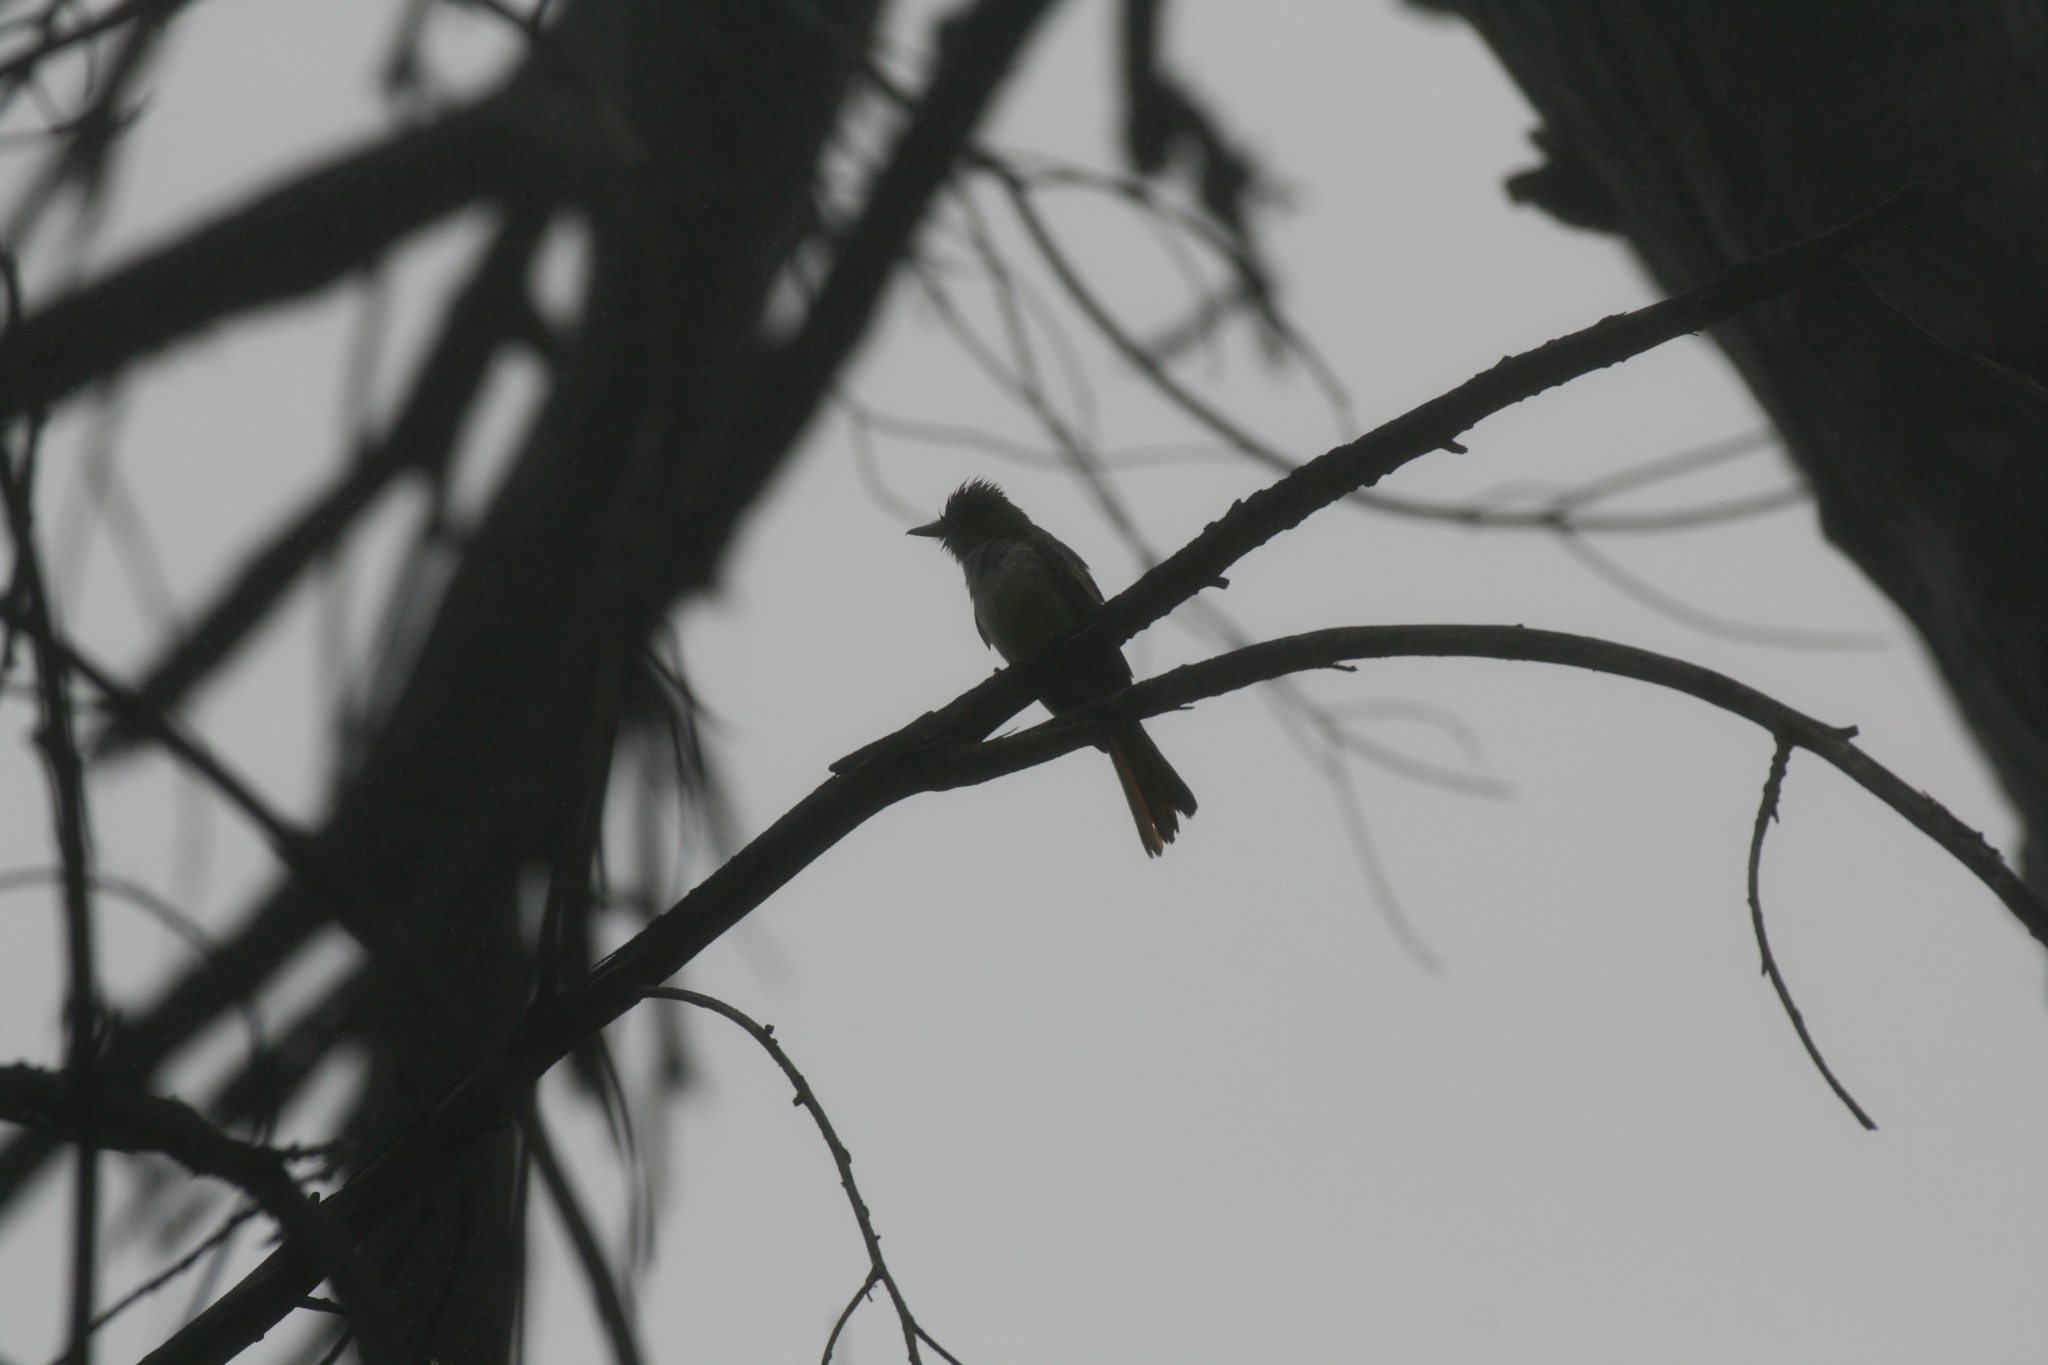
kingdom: Animalia
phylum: Chordata
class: Aves
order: Passeriformes
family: Tyrannidae
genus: Myiarchus
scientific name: Myiarchus cinerascens
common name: Ash-throated flycatcher
